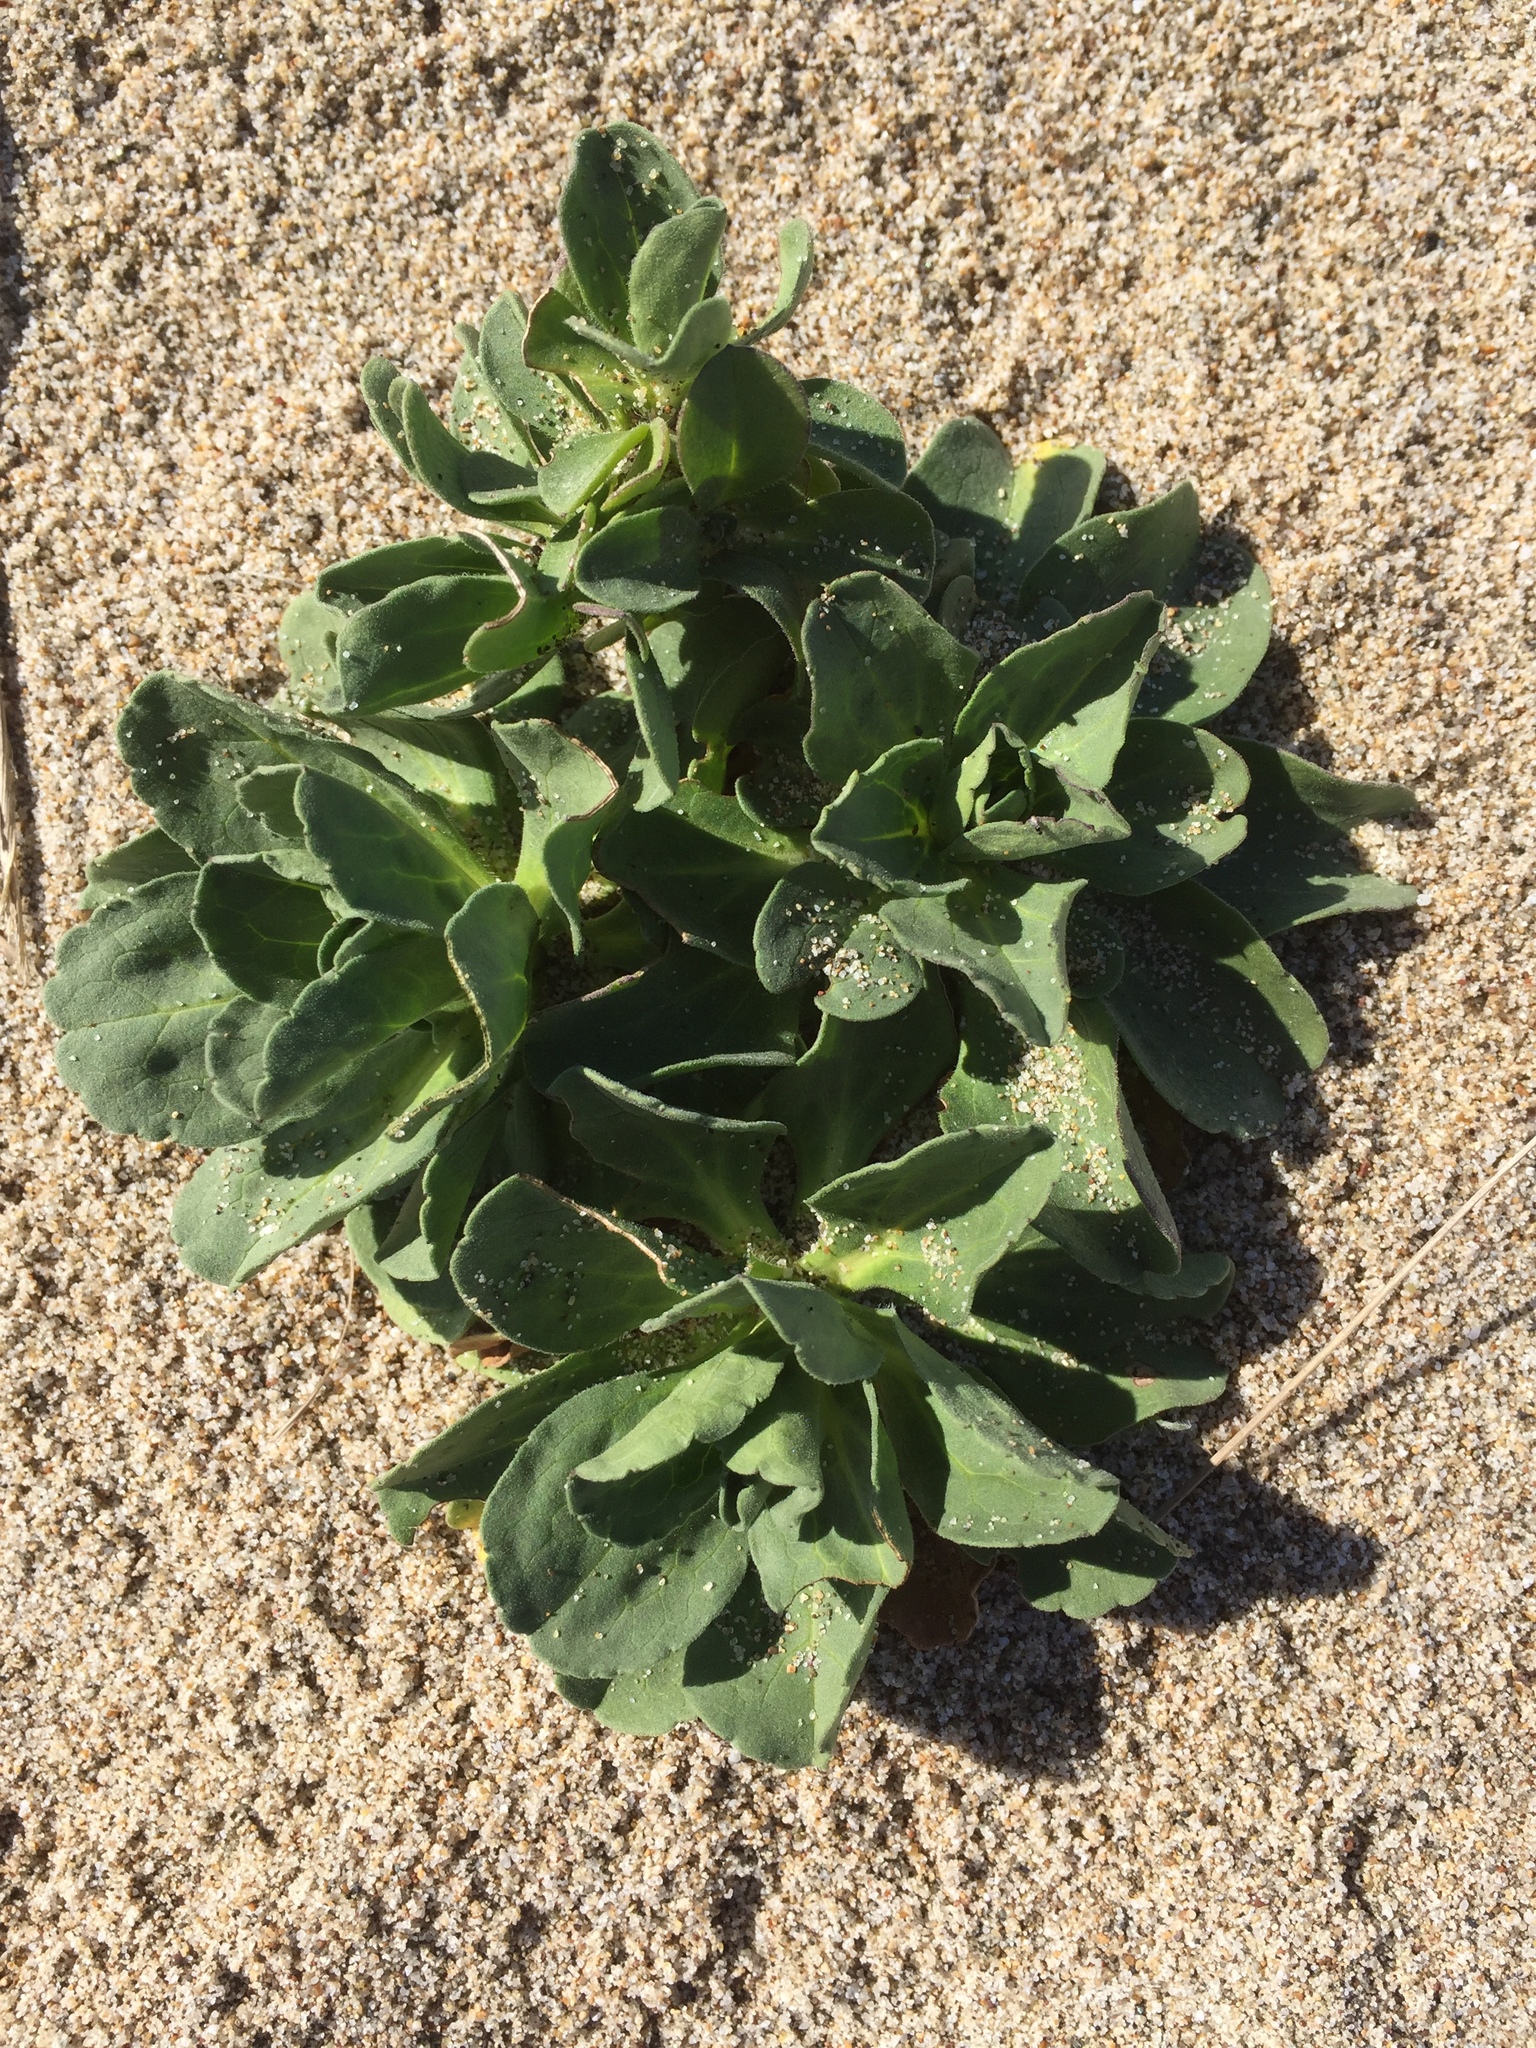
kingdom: Plantae
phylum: Tracheophyta
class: Magnoliopsida
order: Asterales
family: Asteraceae
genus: Erigeron
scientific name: Erigeron glaucus
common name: Seaside daisy
